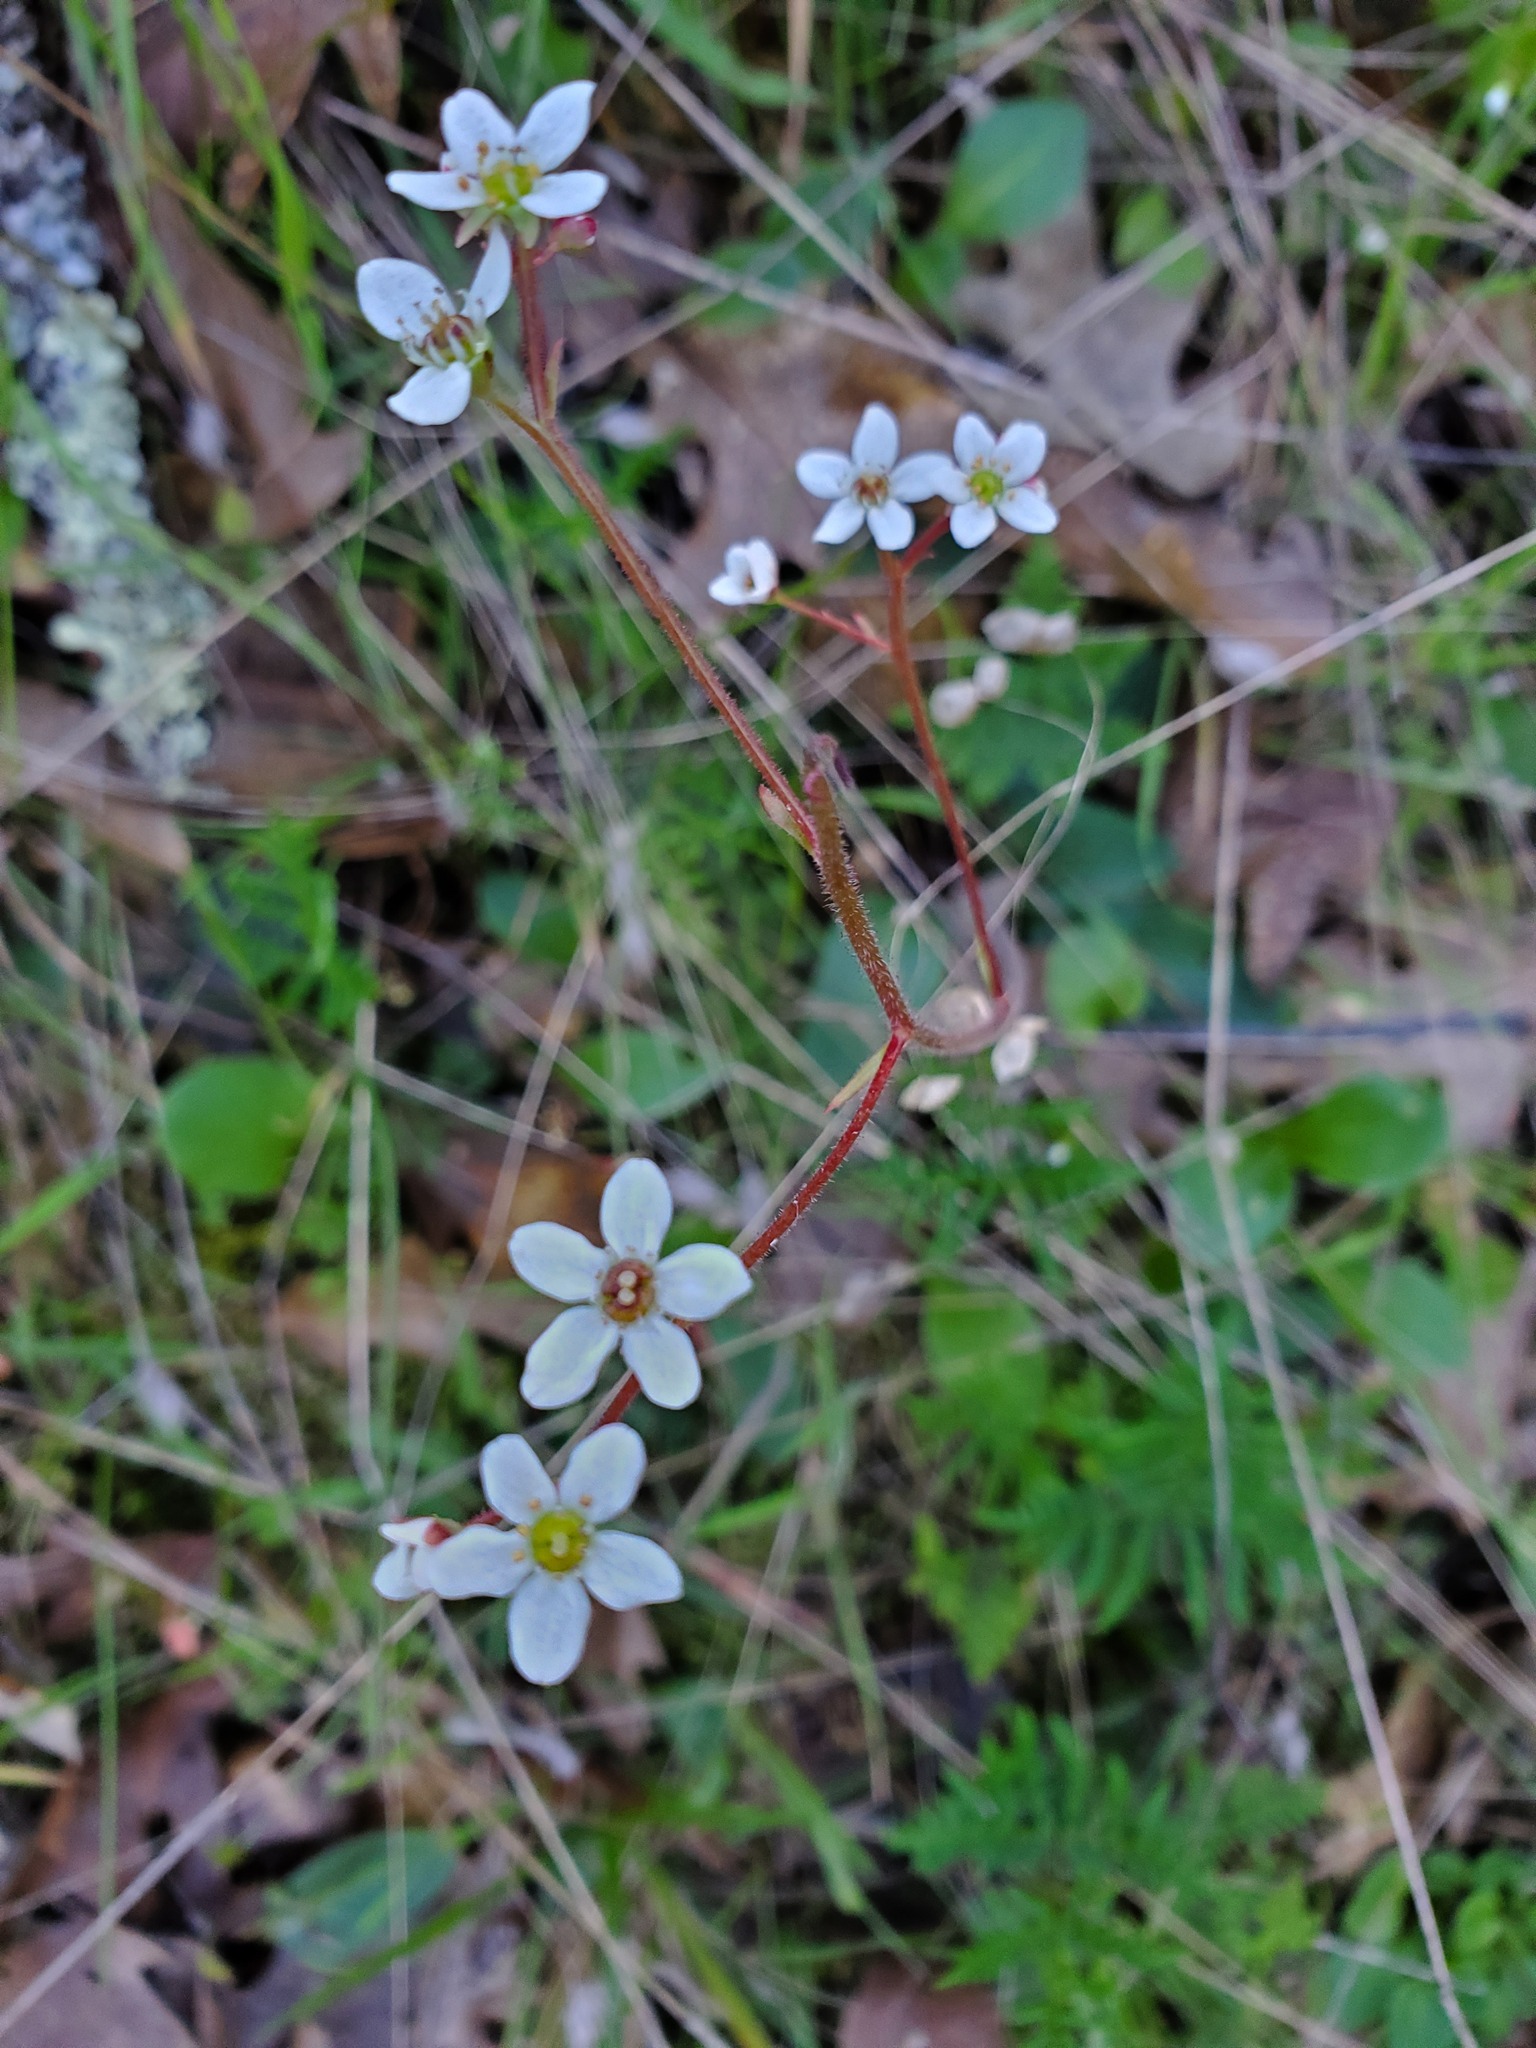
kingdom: Plantae
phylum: Tracheophyta
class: Magnoliopsida
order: Saxifragales
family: Saxifragaceae
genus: Micranthes
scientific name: Micranthes californica
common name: California saxifrage
